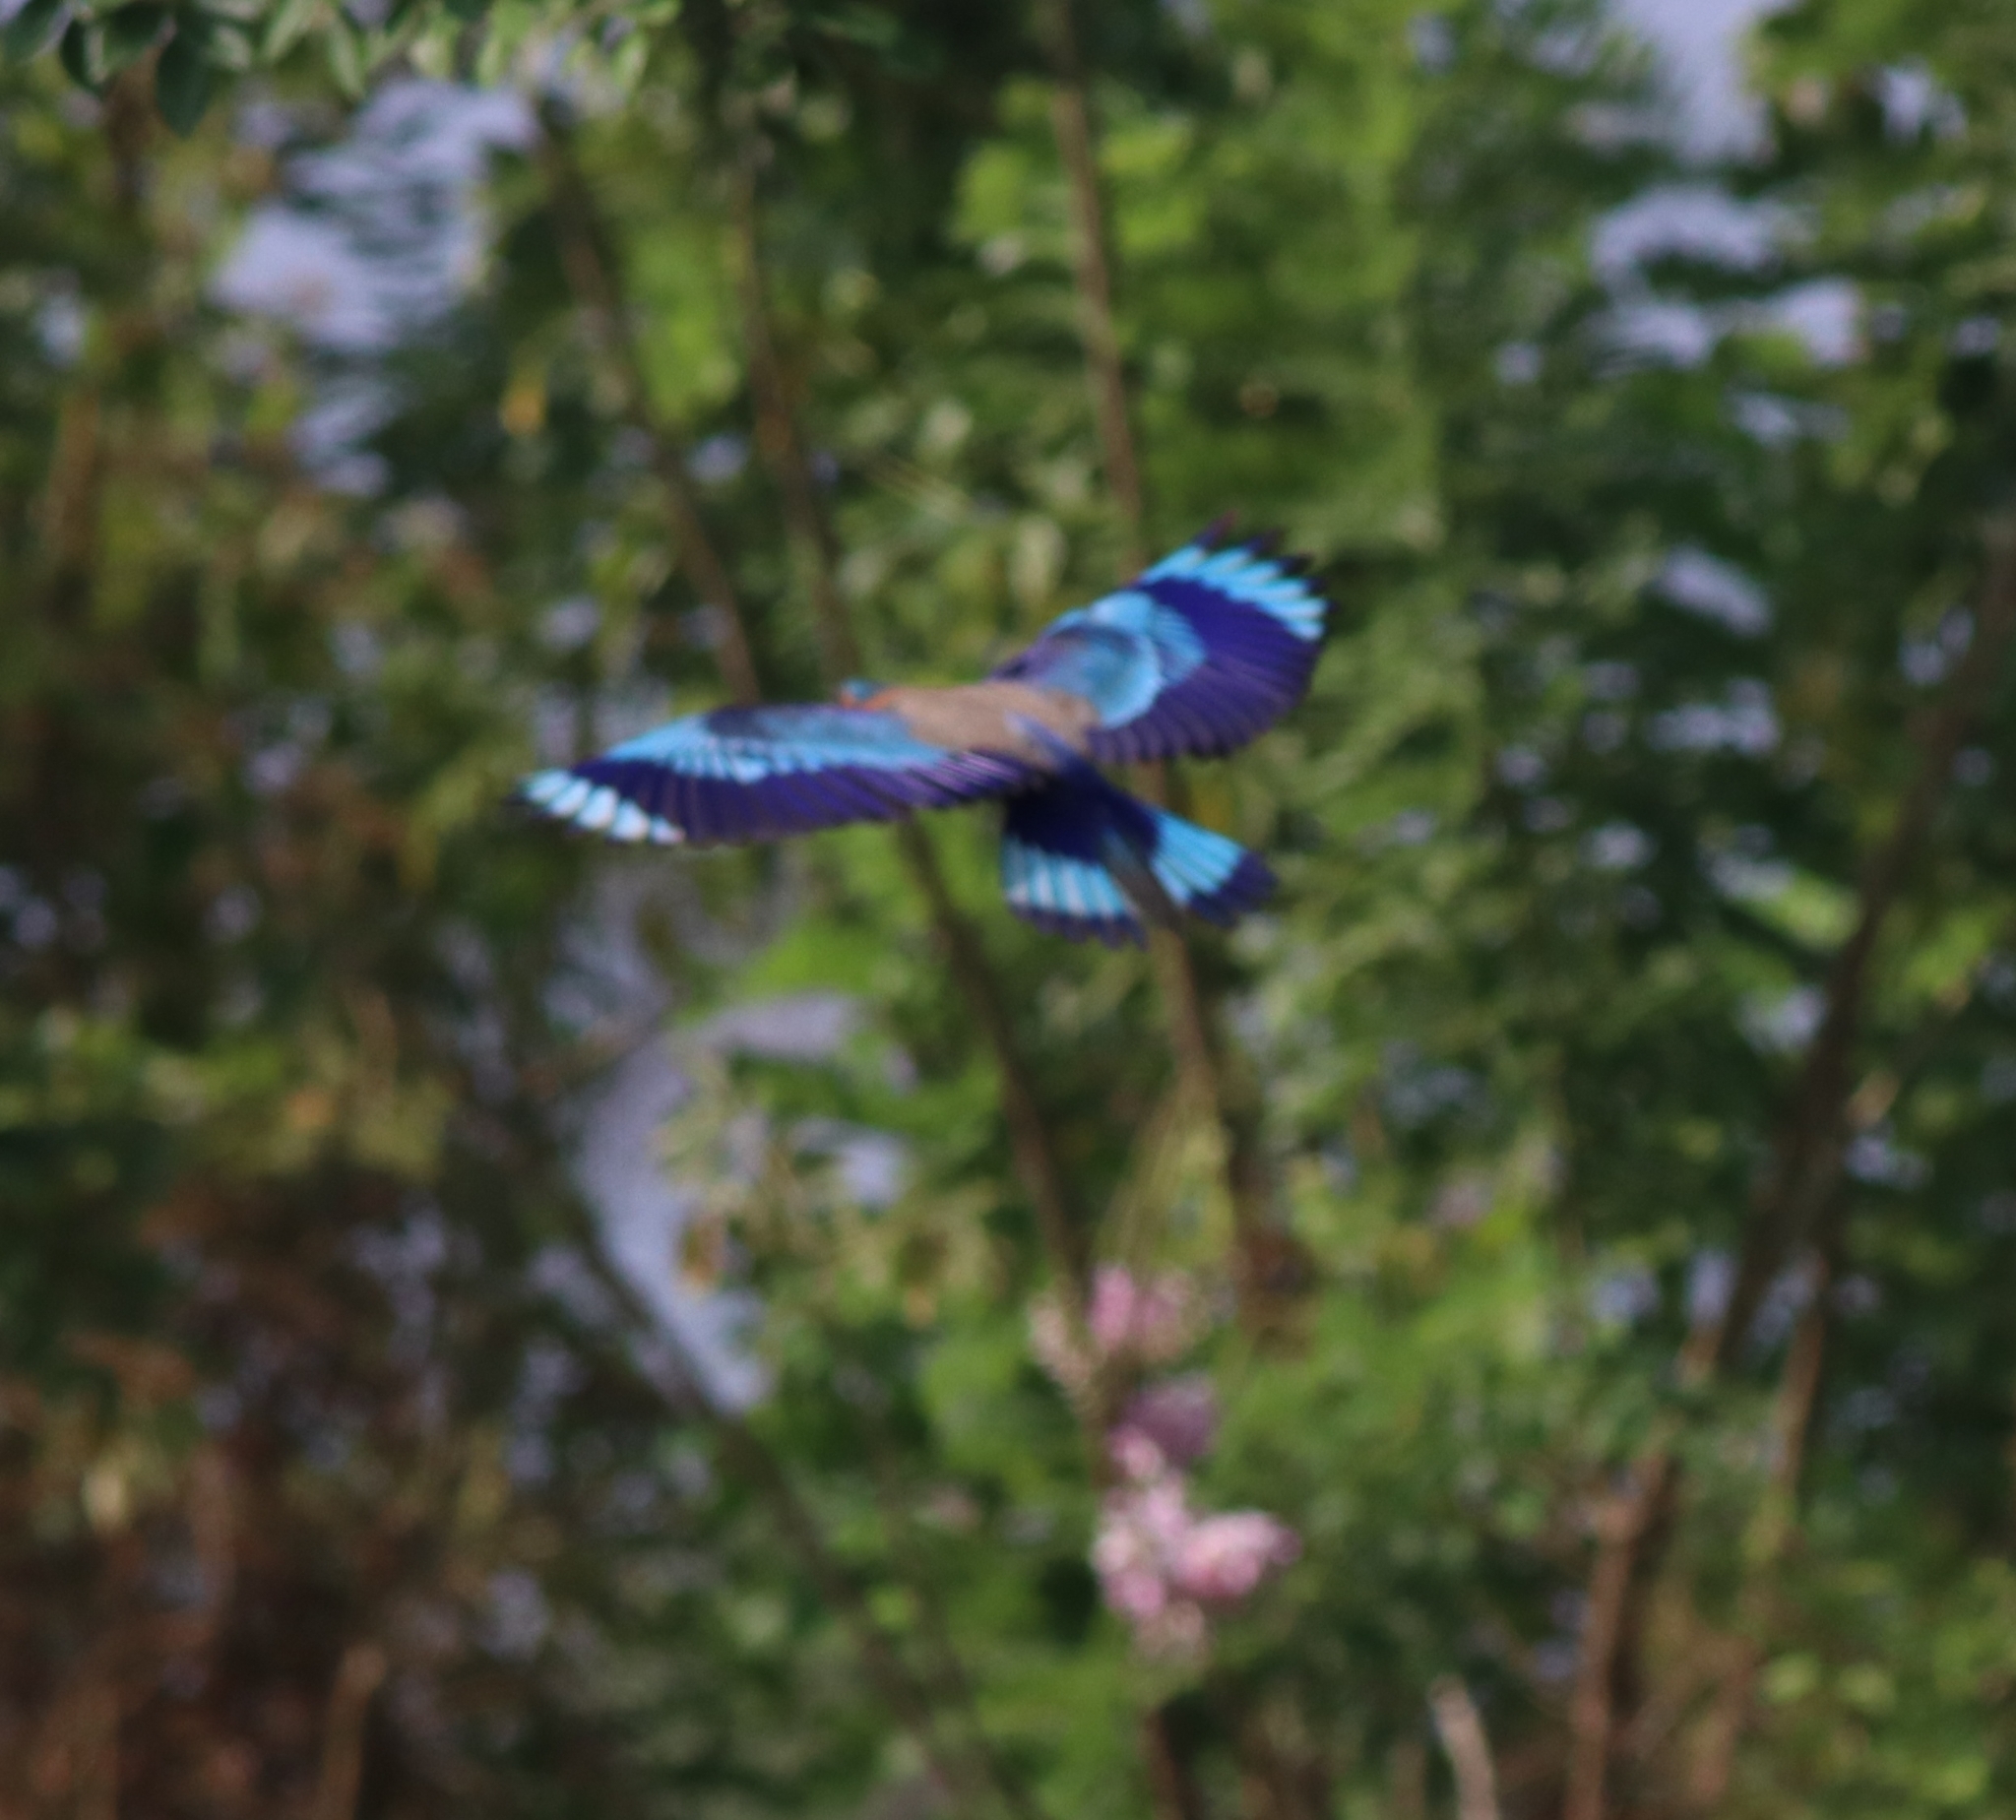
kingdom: Animalia
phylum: Chordata
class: Aves
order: Coraciiformes
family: Coraciidae
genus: Coracias
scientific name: Coracias benghalensis
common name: Indian roller
